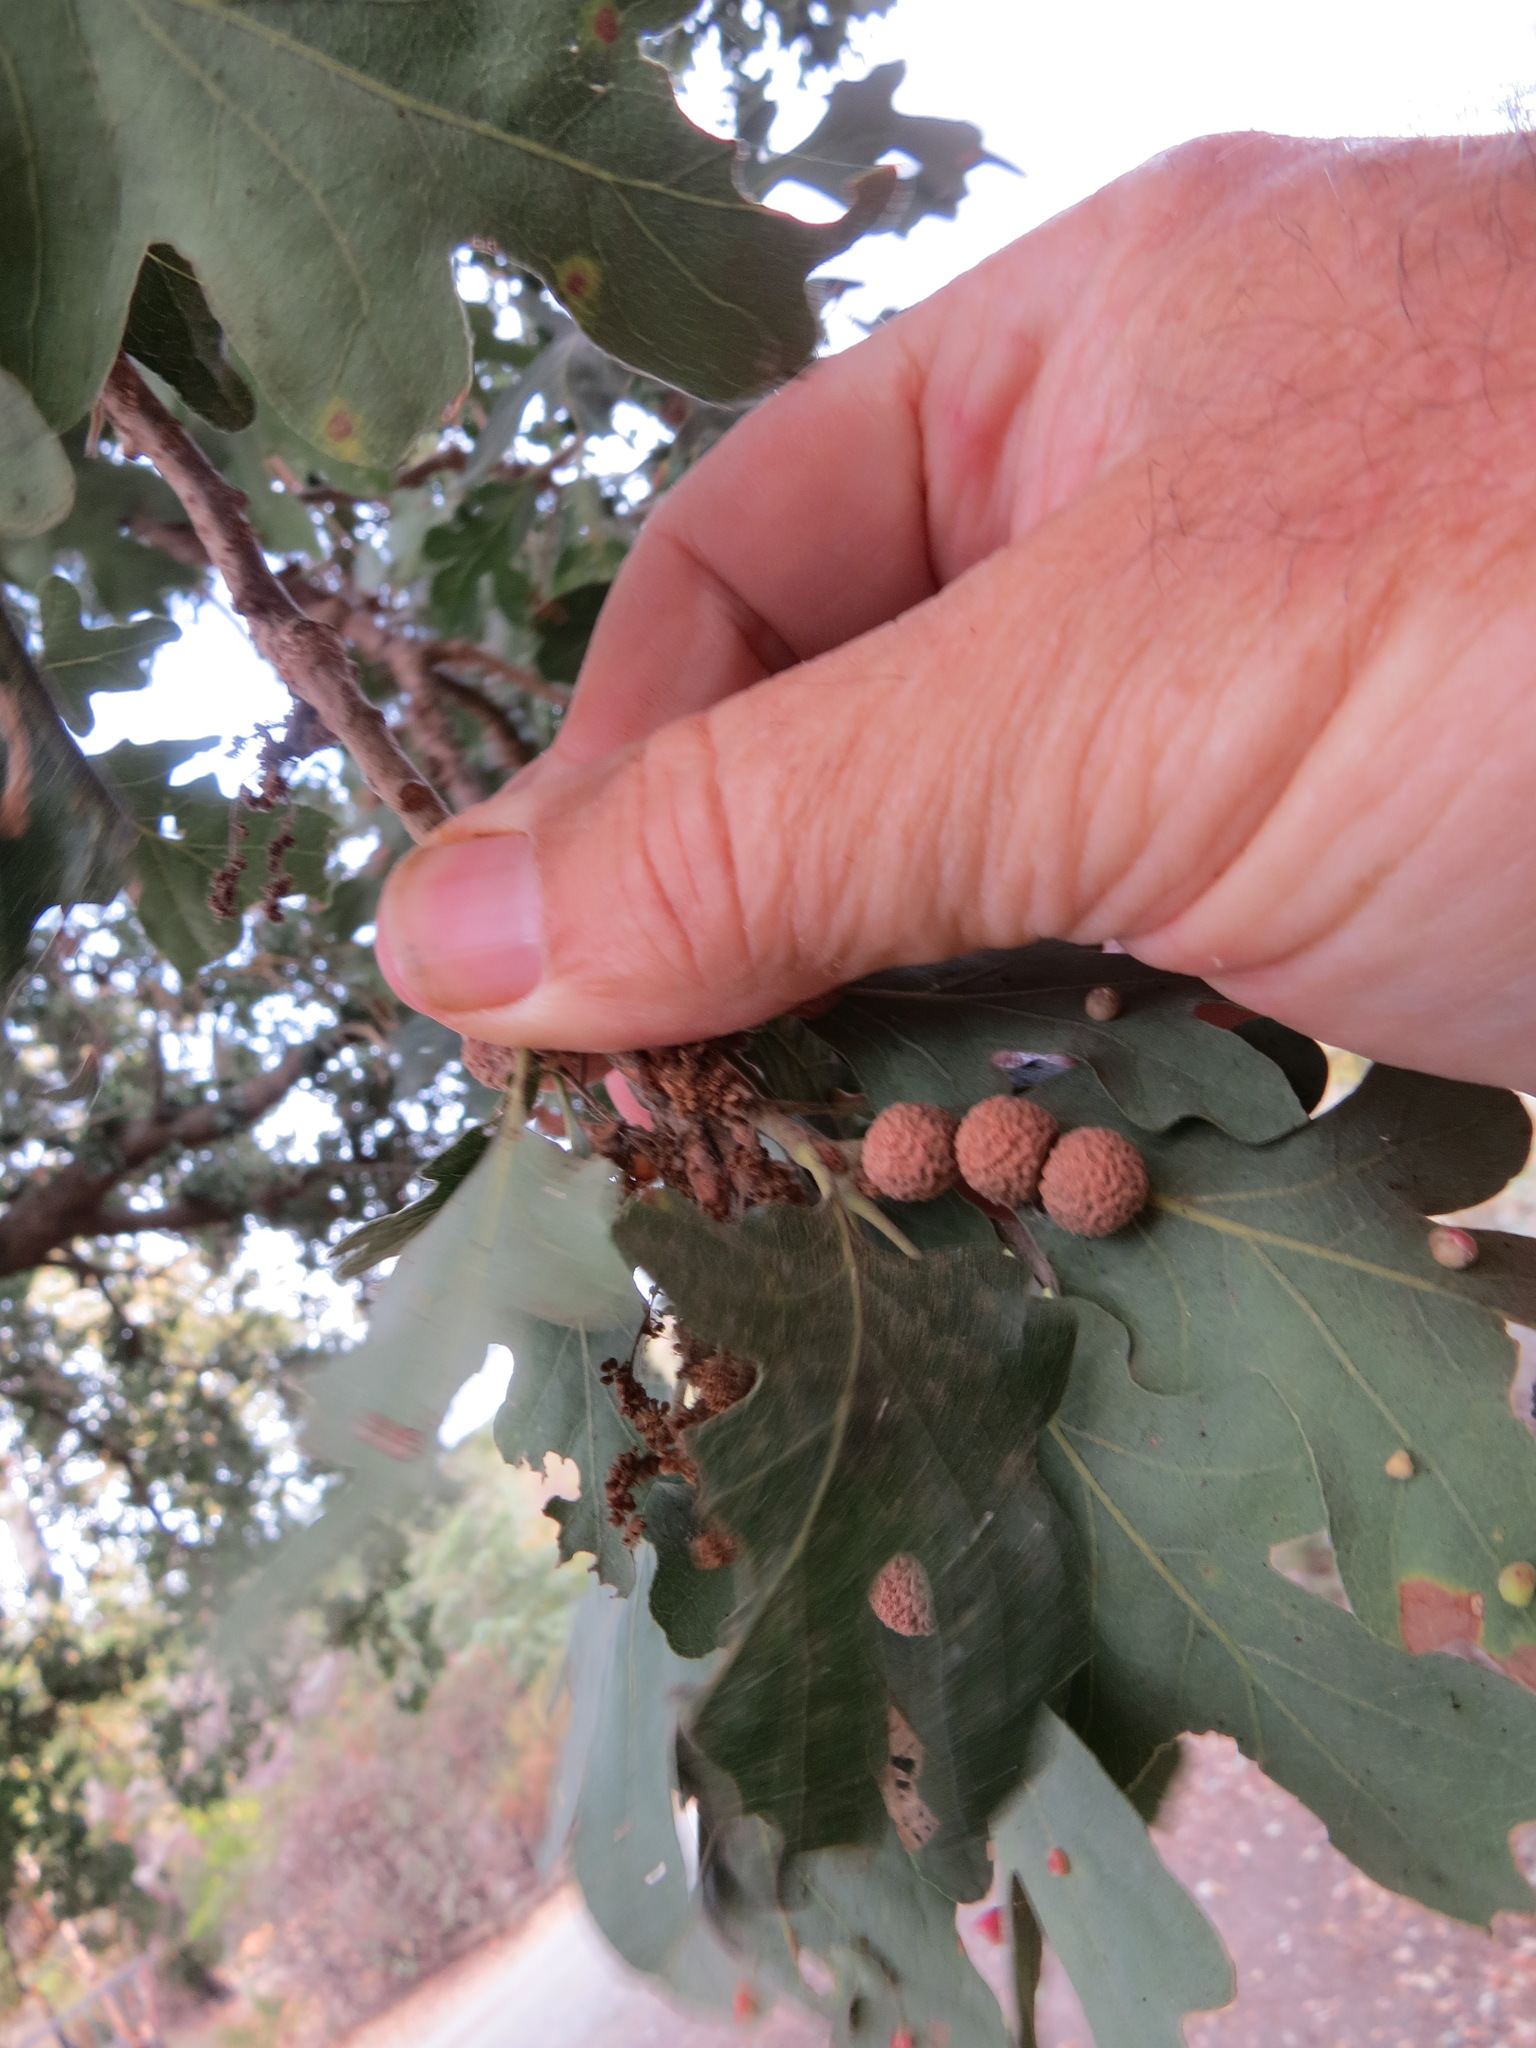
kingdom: Animalia
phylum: Arthropoda
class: Insecta
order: Hymenoptera
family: Cynipidae
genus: Cynips
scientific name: Cynips conspicua
